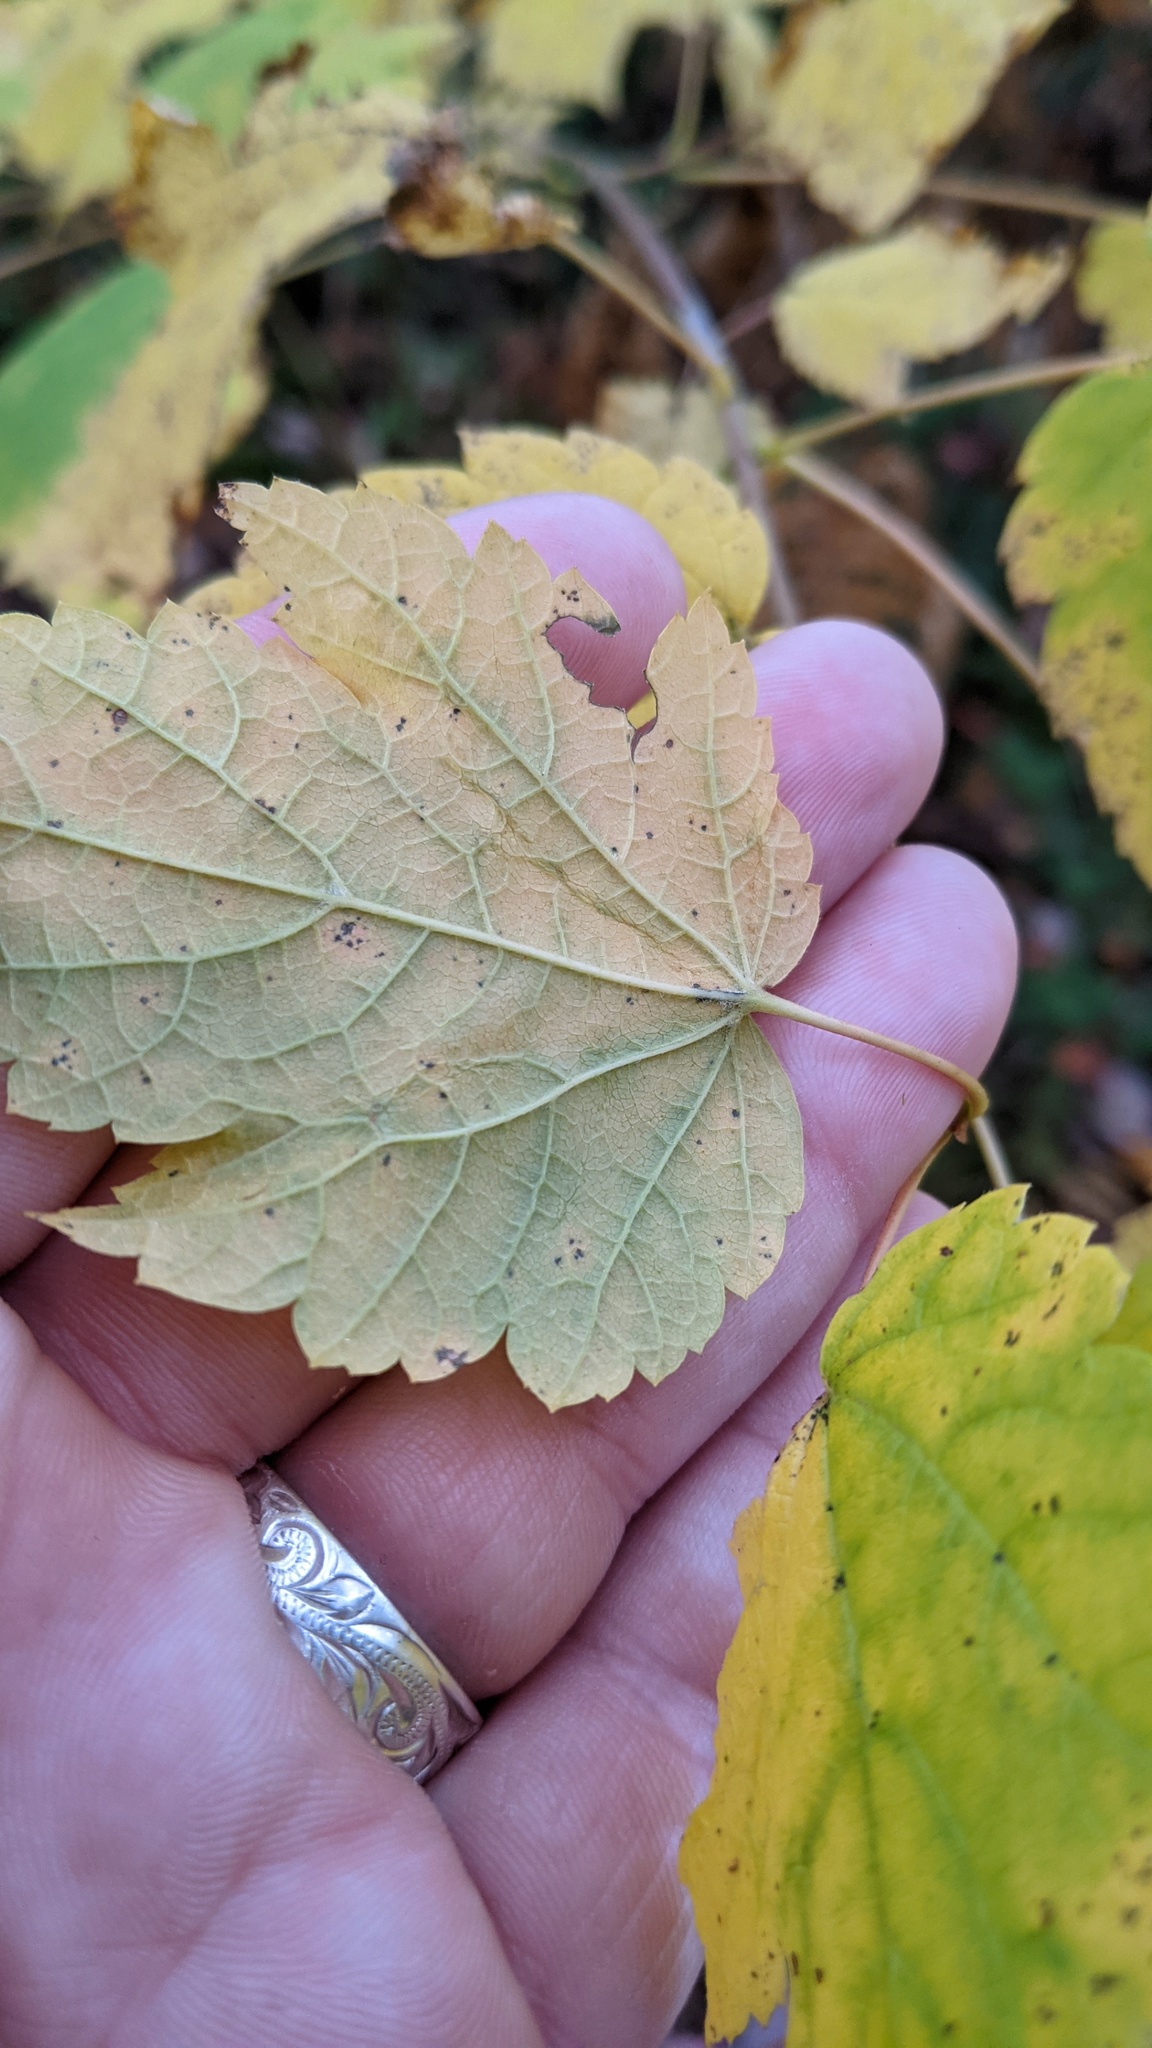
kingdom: Plantae
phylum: Tracheophyta
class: Magnoliopsida
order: Sapindales
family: Sapindaceae
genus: Acer
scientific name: Acer spicatum
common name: Mountain maple
